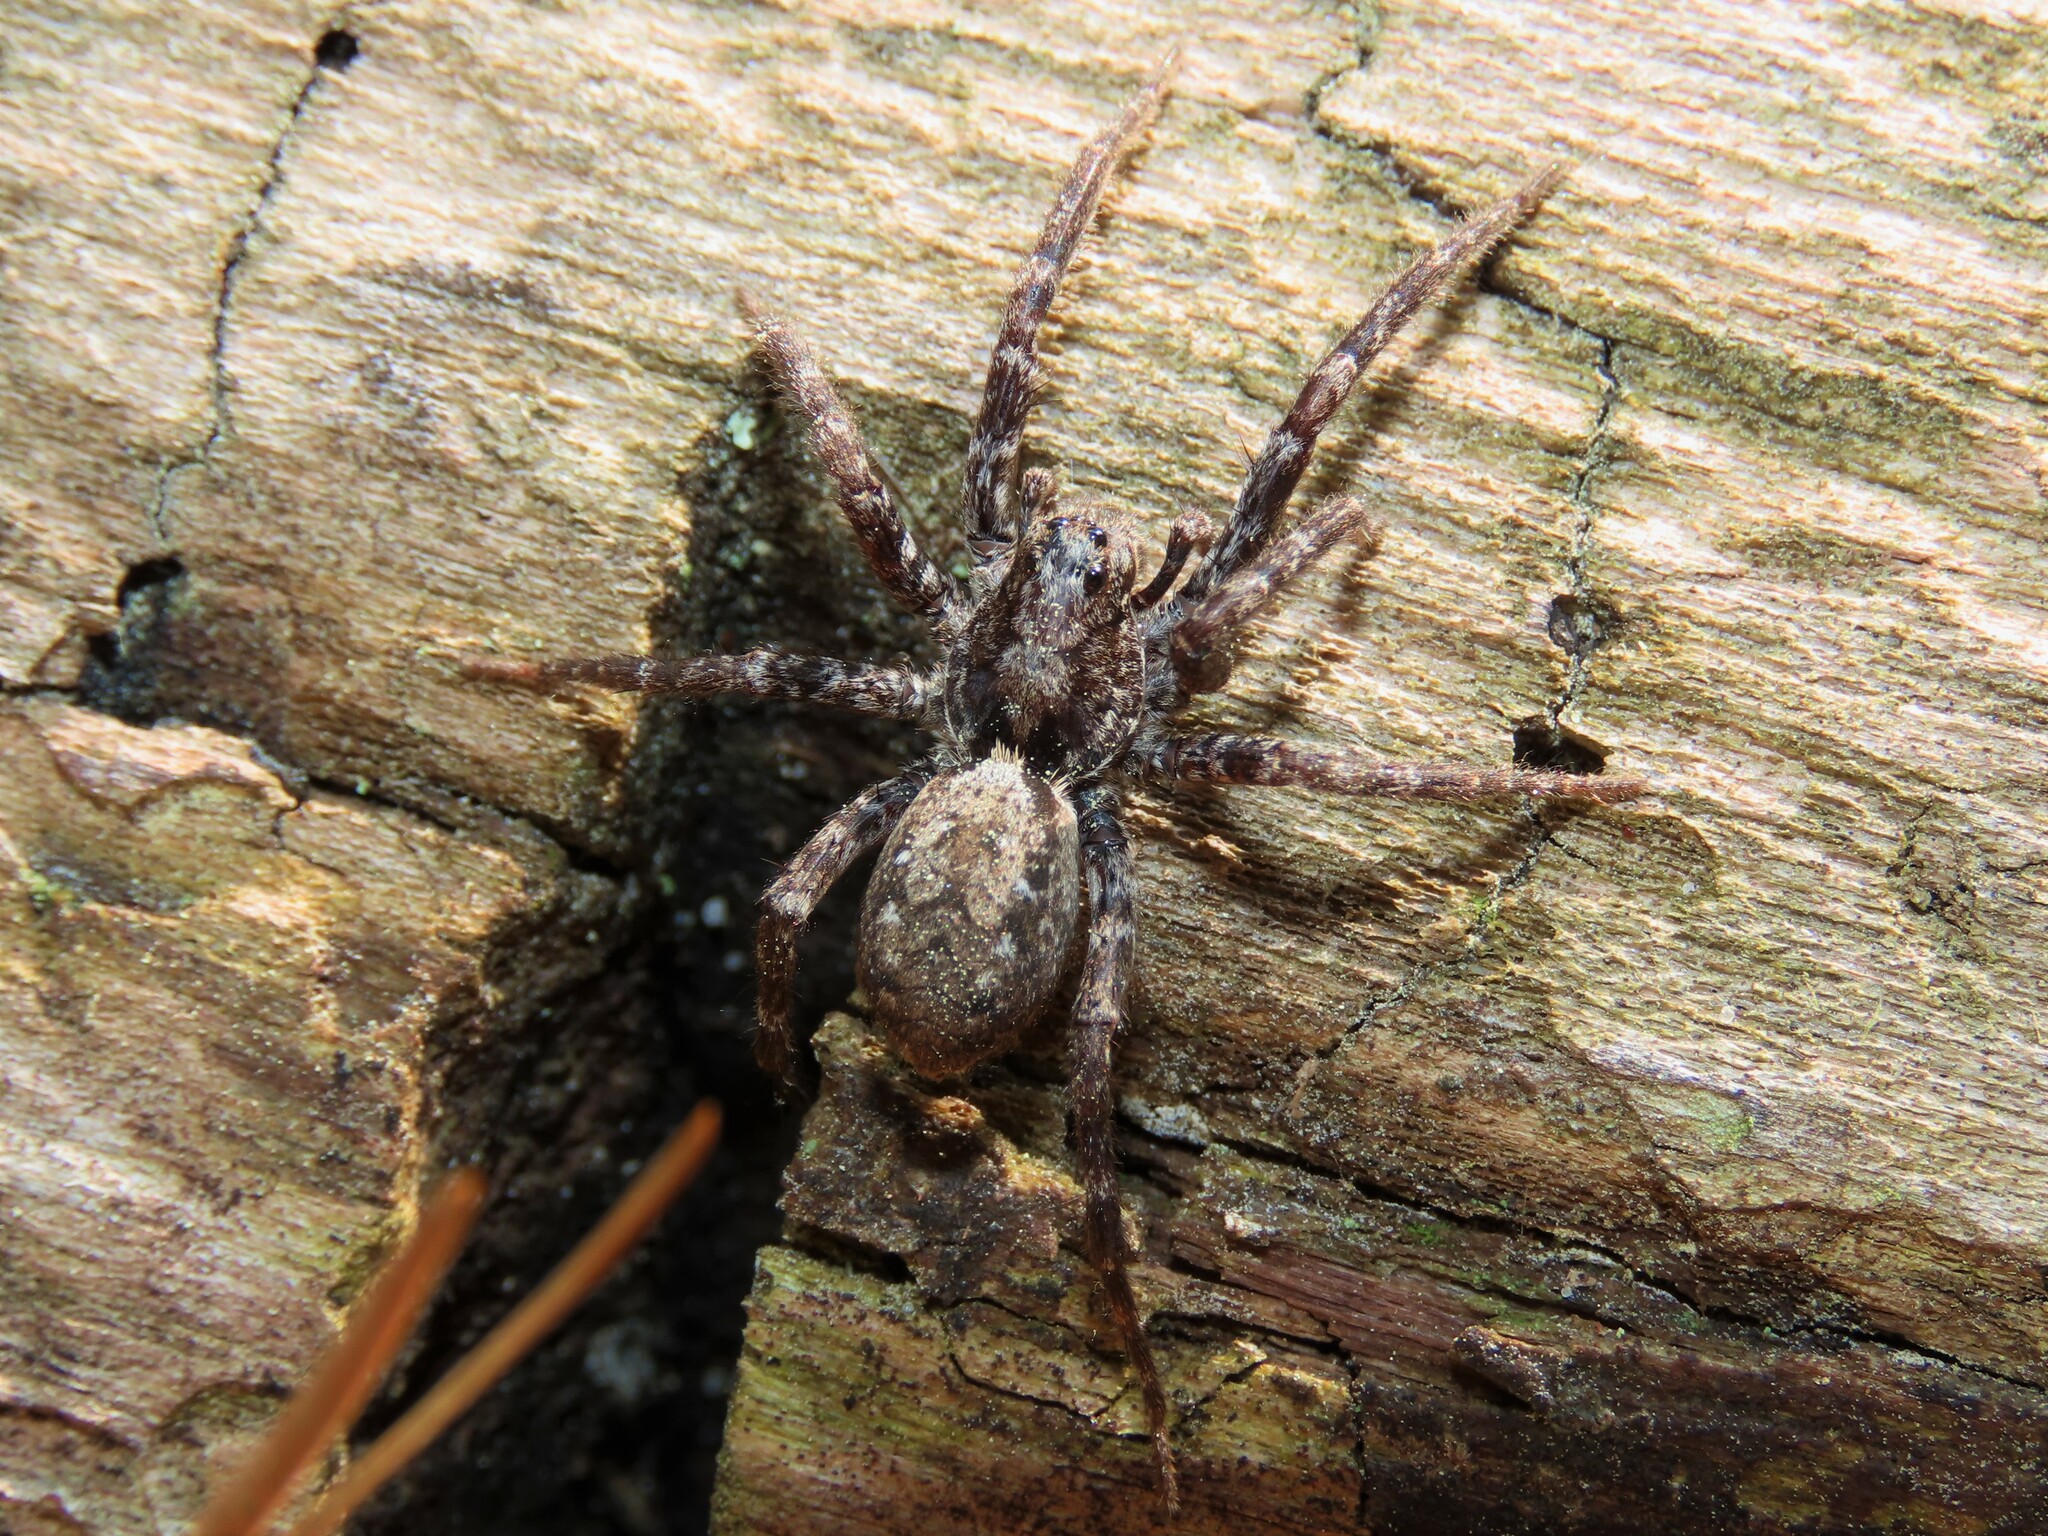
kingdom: Animalia
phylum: Arthropoda
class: Arachnida
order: Araneae
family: Lycosidae
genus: Gladicosa
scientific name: Gladicosa pulchra
